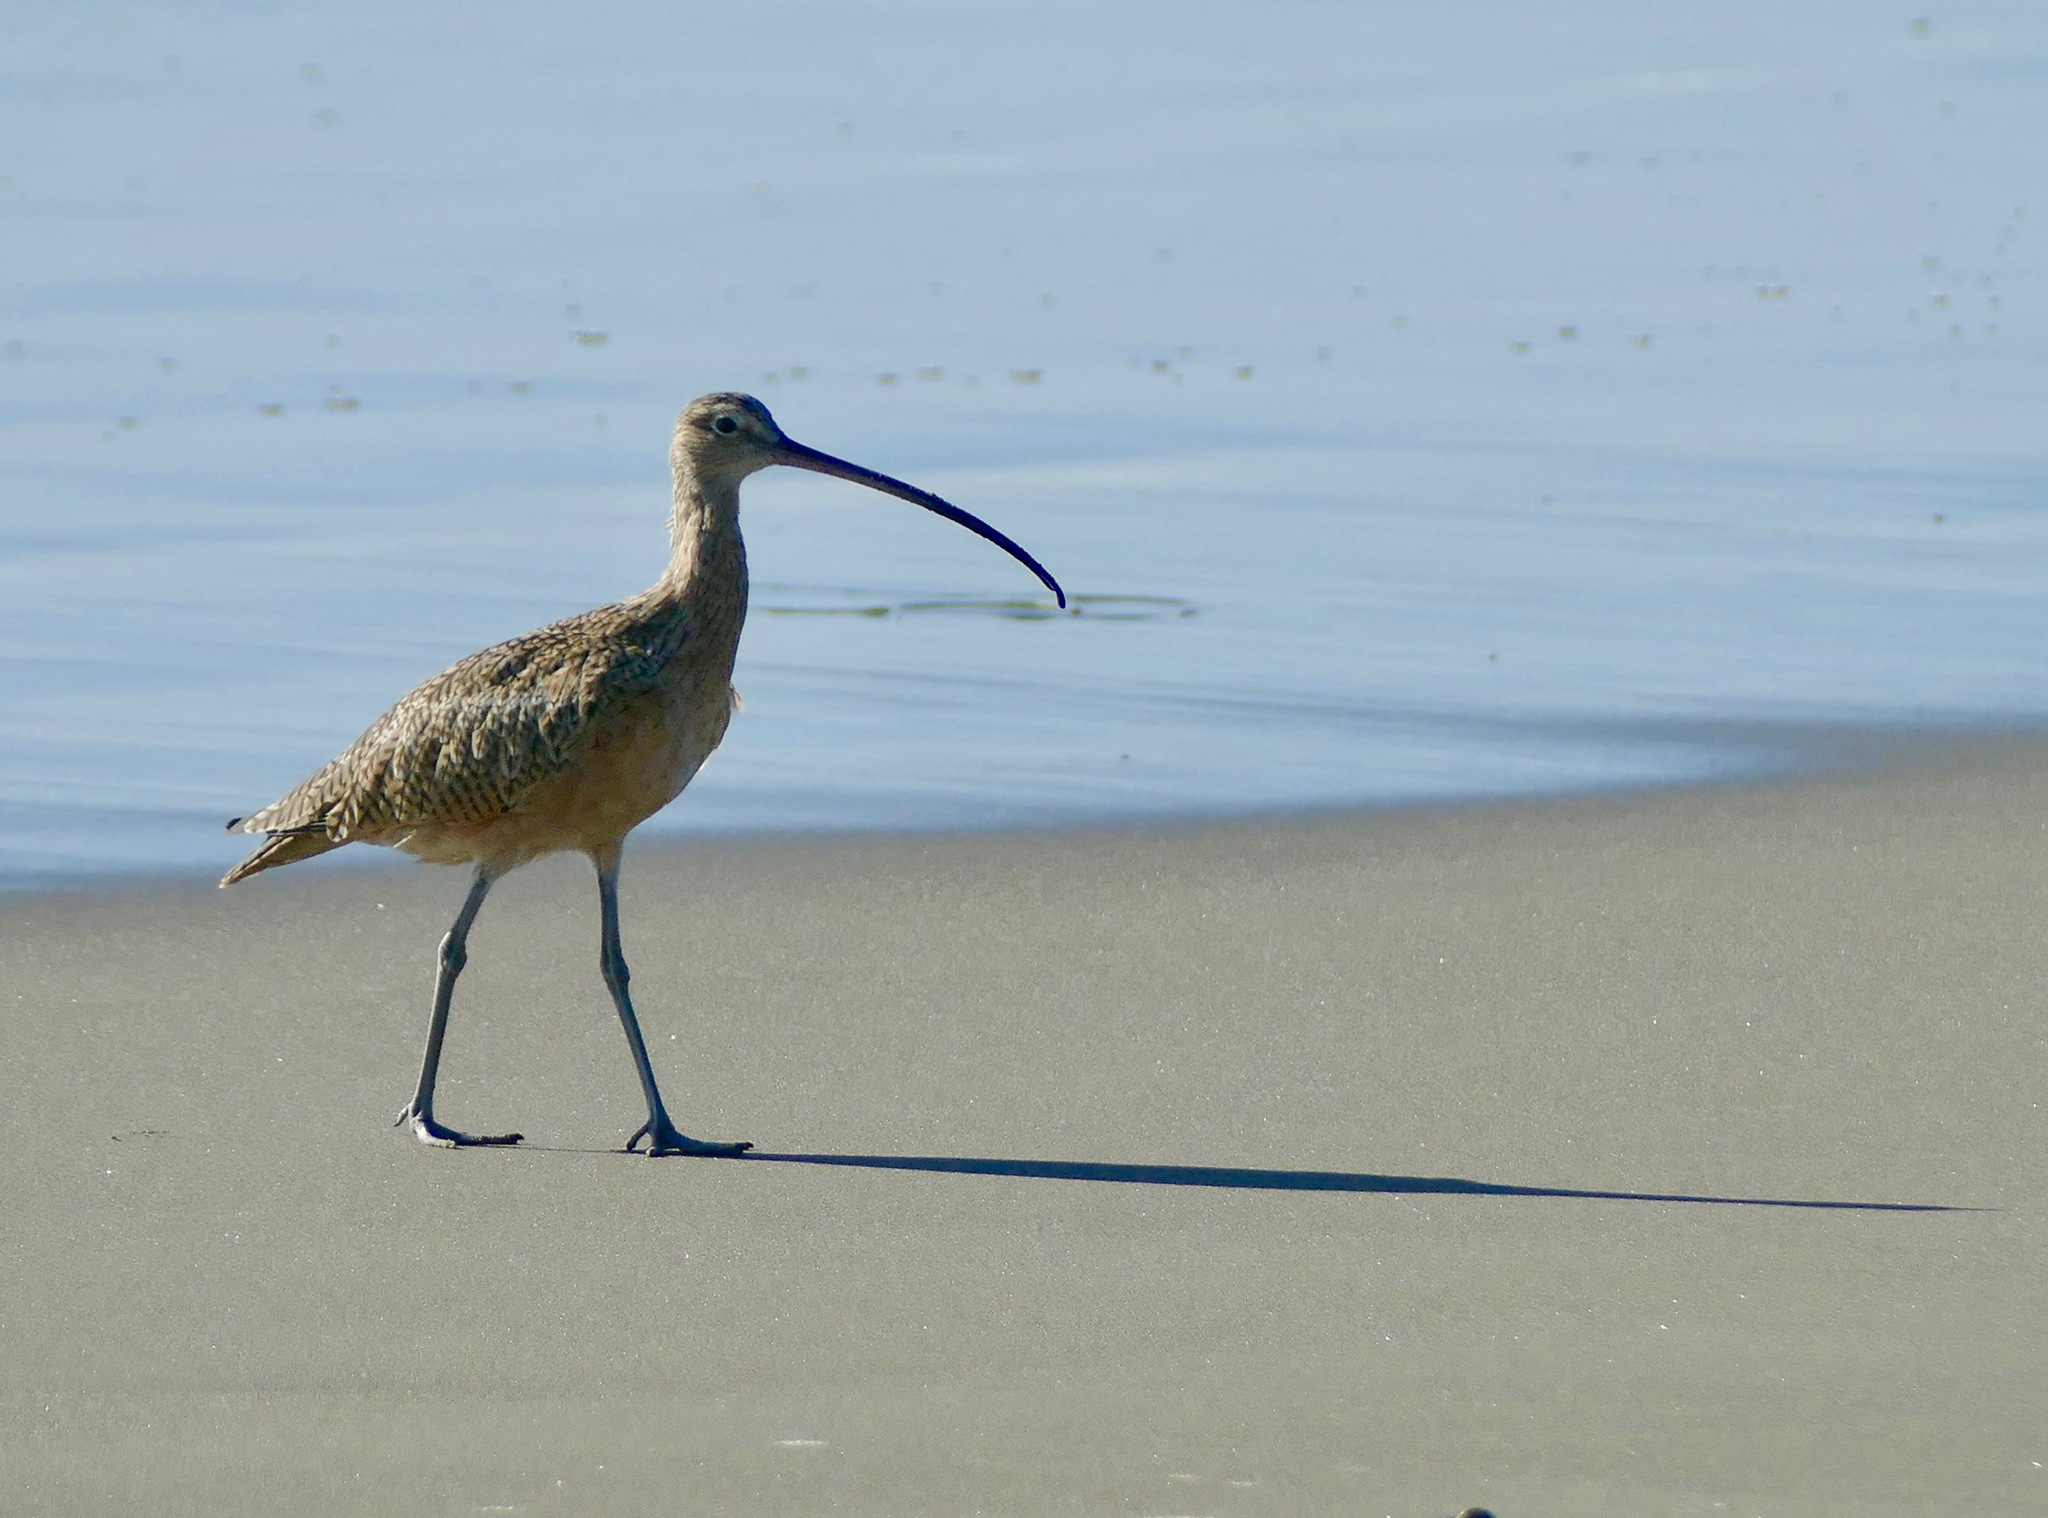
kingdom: Animalia
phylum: Chordata
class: Aves
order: Charadriiformes
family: Scolopacidae
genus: Numenius
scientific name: Numenius americanus
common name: Long-billed curlew
